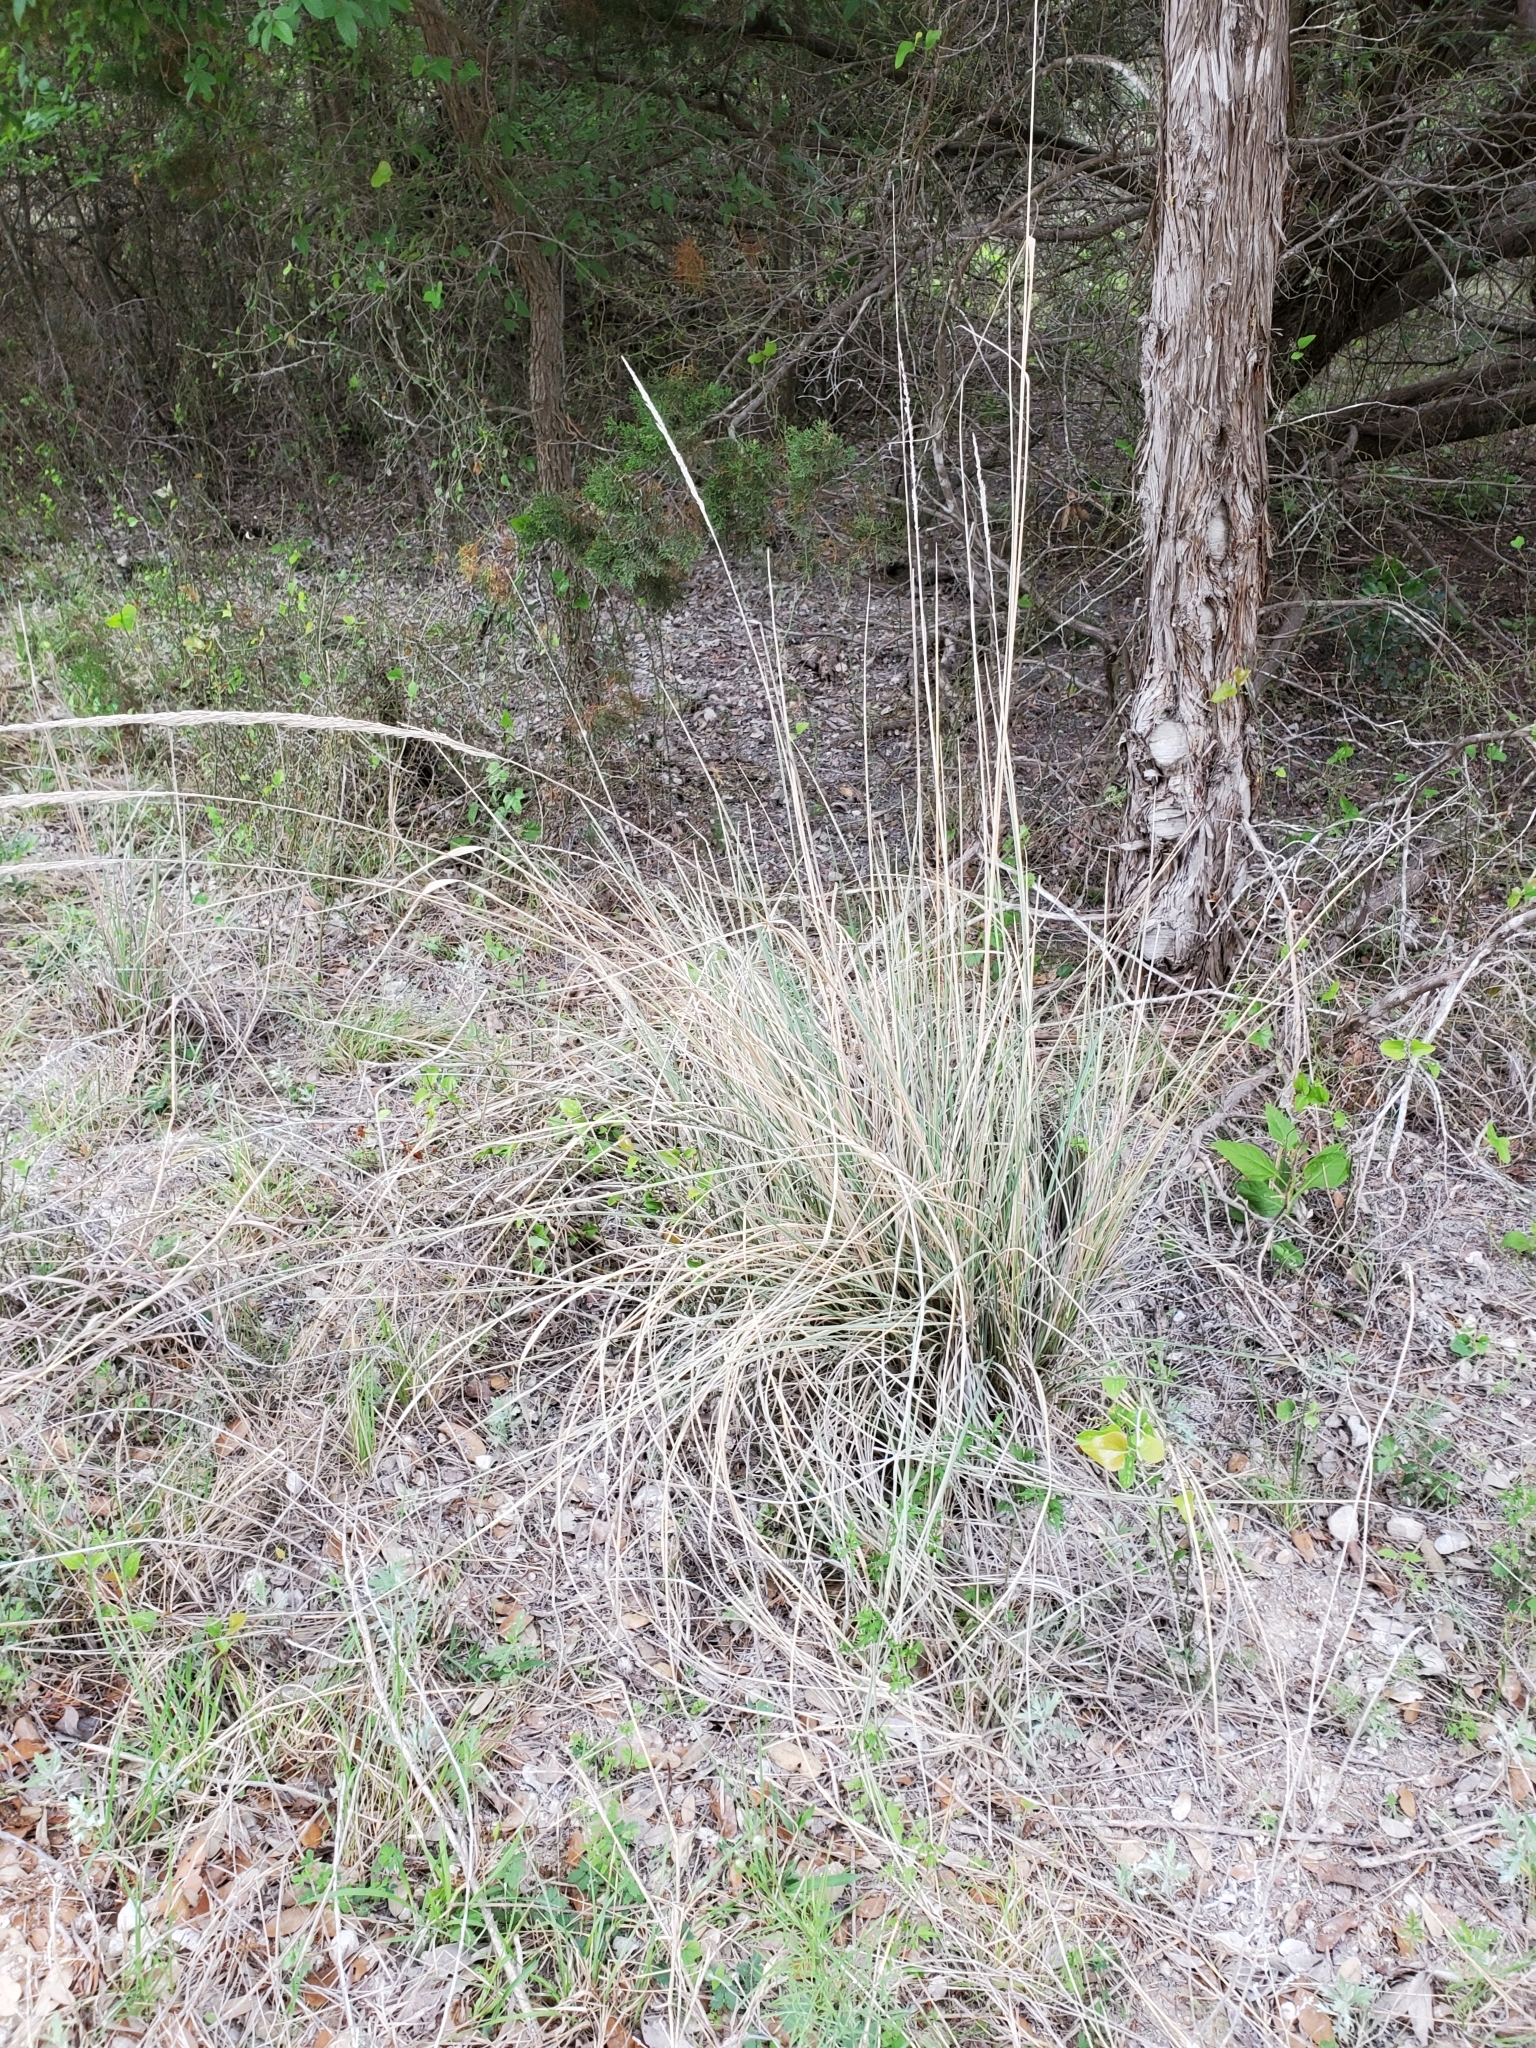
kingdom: Plantae
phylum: Tracheophyta
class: Liliopsida
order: Poales
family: Poaceae
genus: Muhlenbergia
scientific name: Muhlenbergia lindheimeri
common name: Lindheimer's muhly
